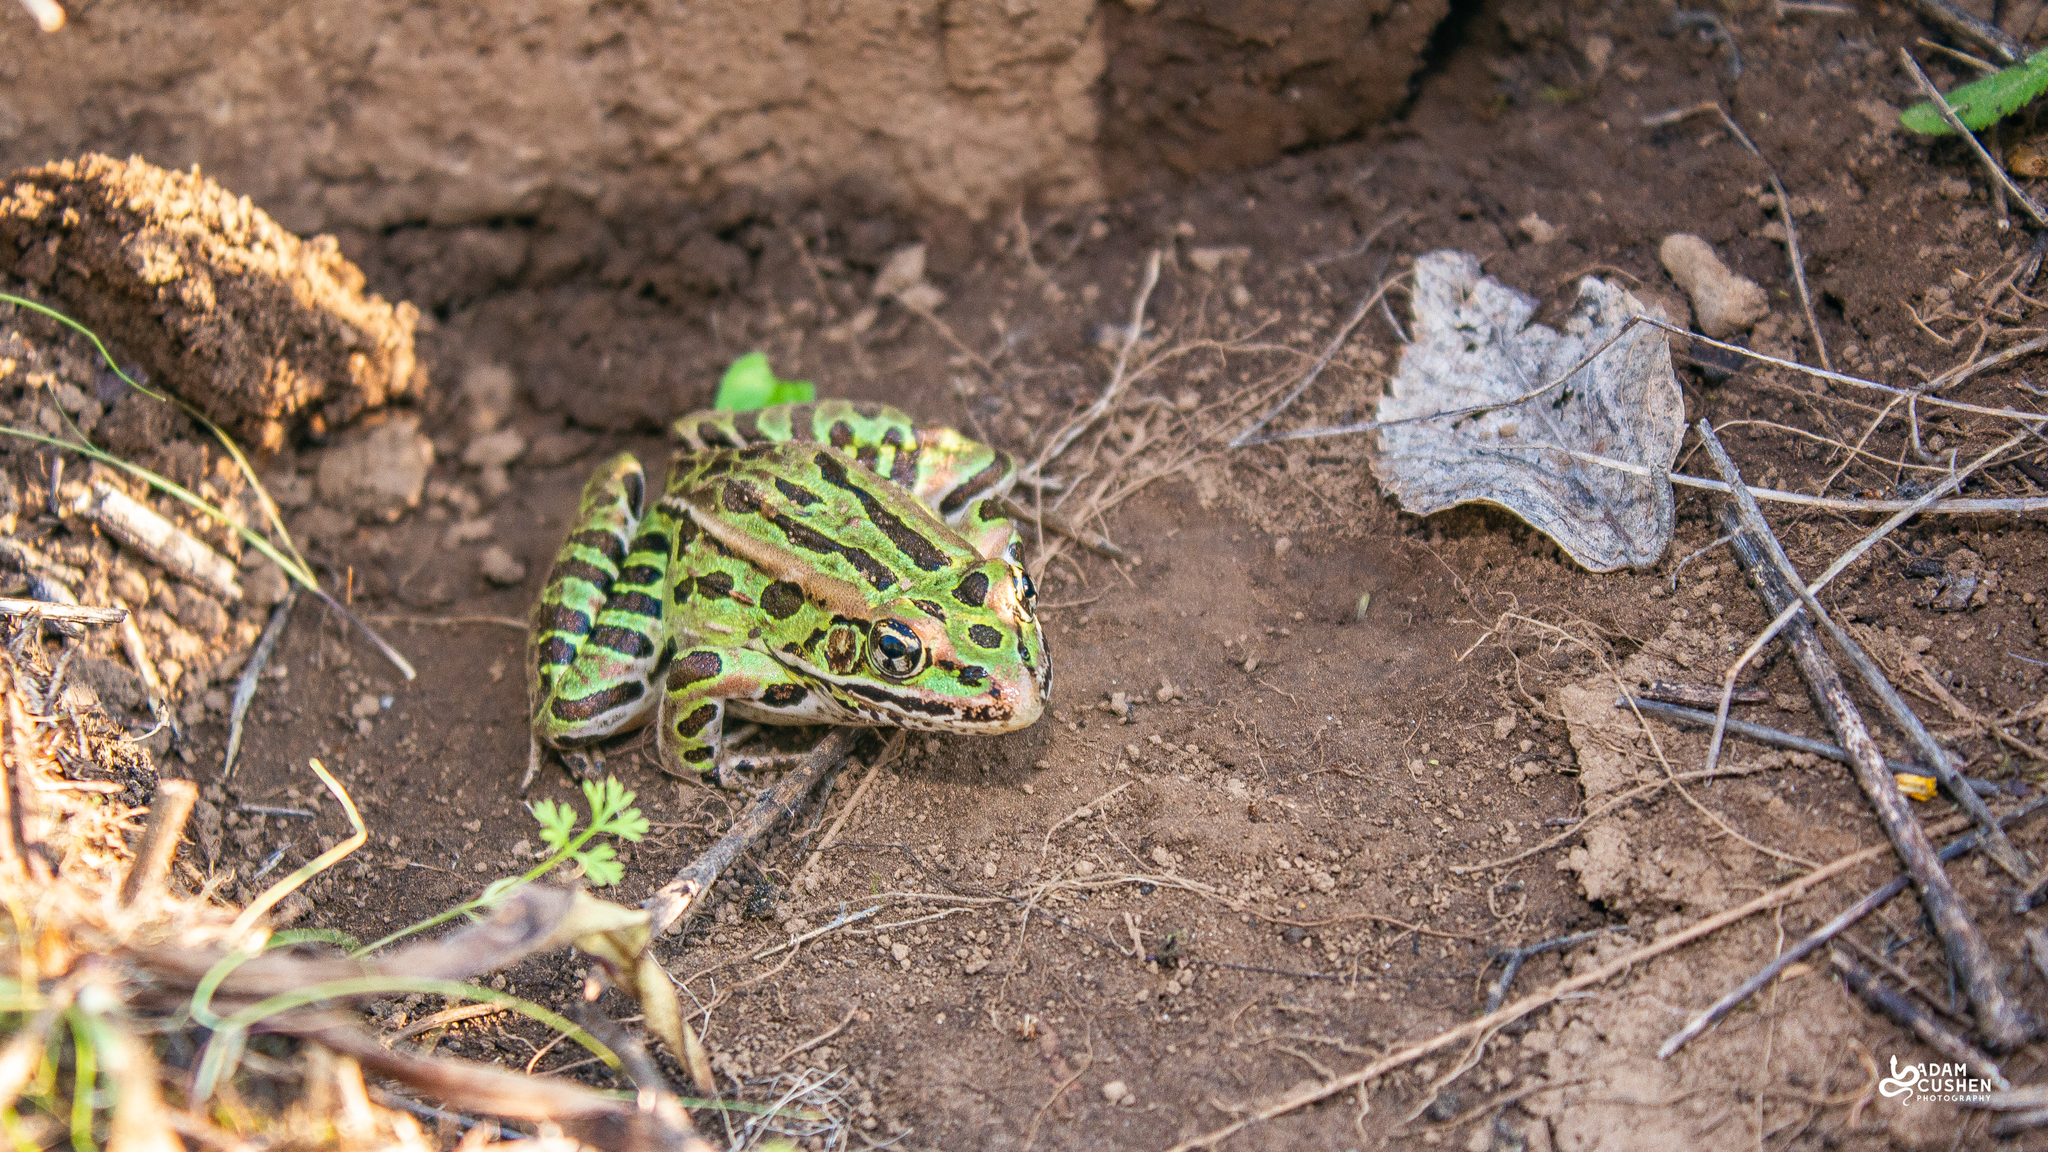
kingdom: Animalia
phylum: Chordata
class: Amphibia
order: Anura
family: Ranidae
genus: Lithobates
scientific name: Lithobates pipiens
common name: Northern leopard frog
